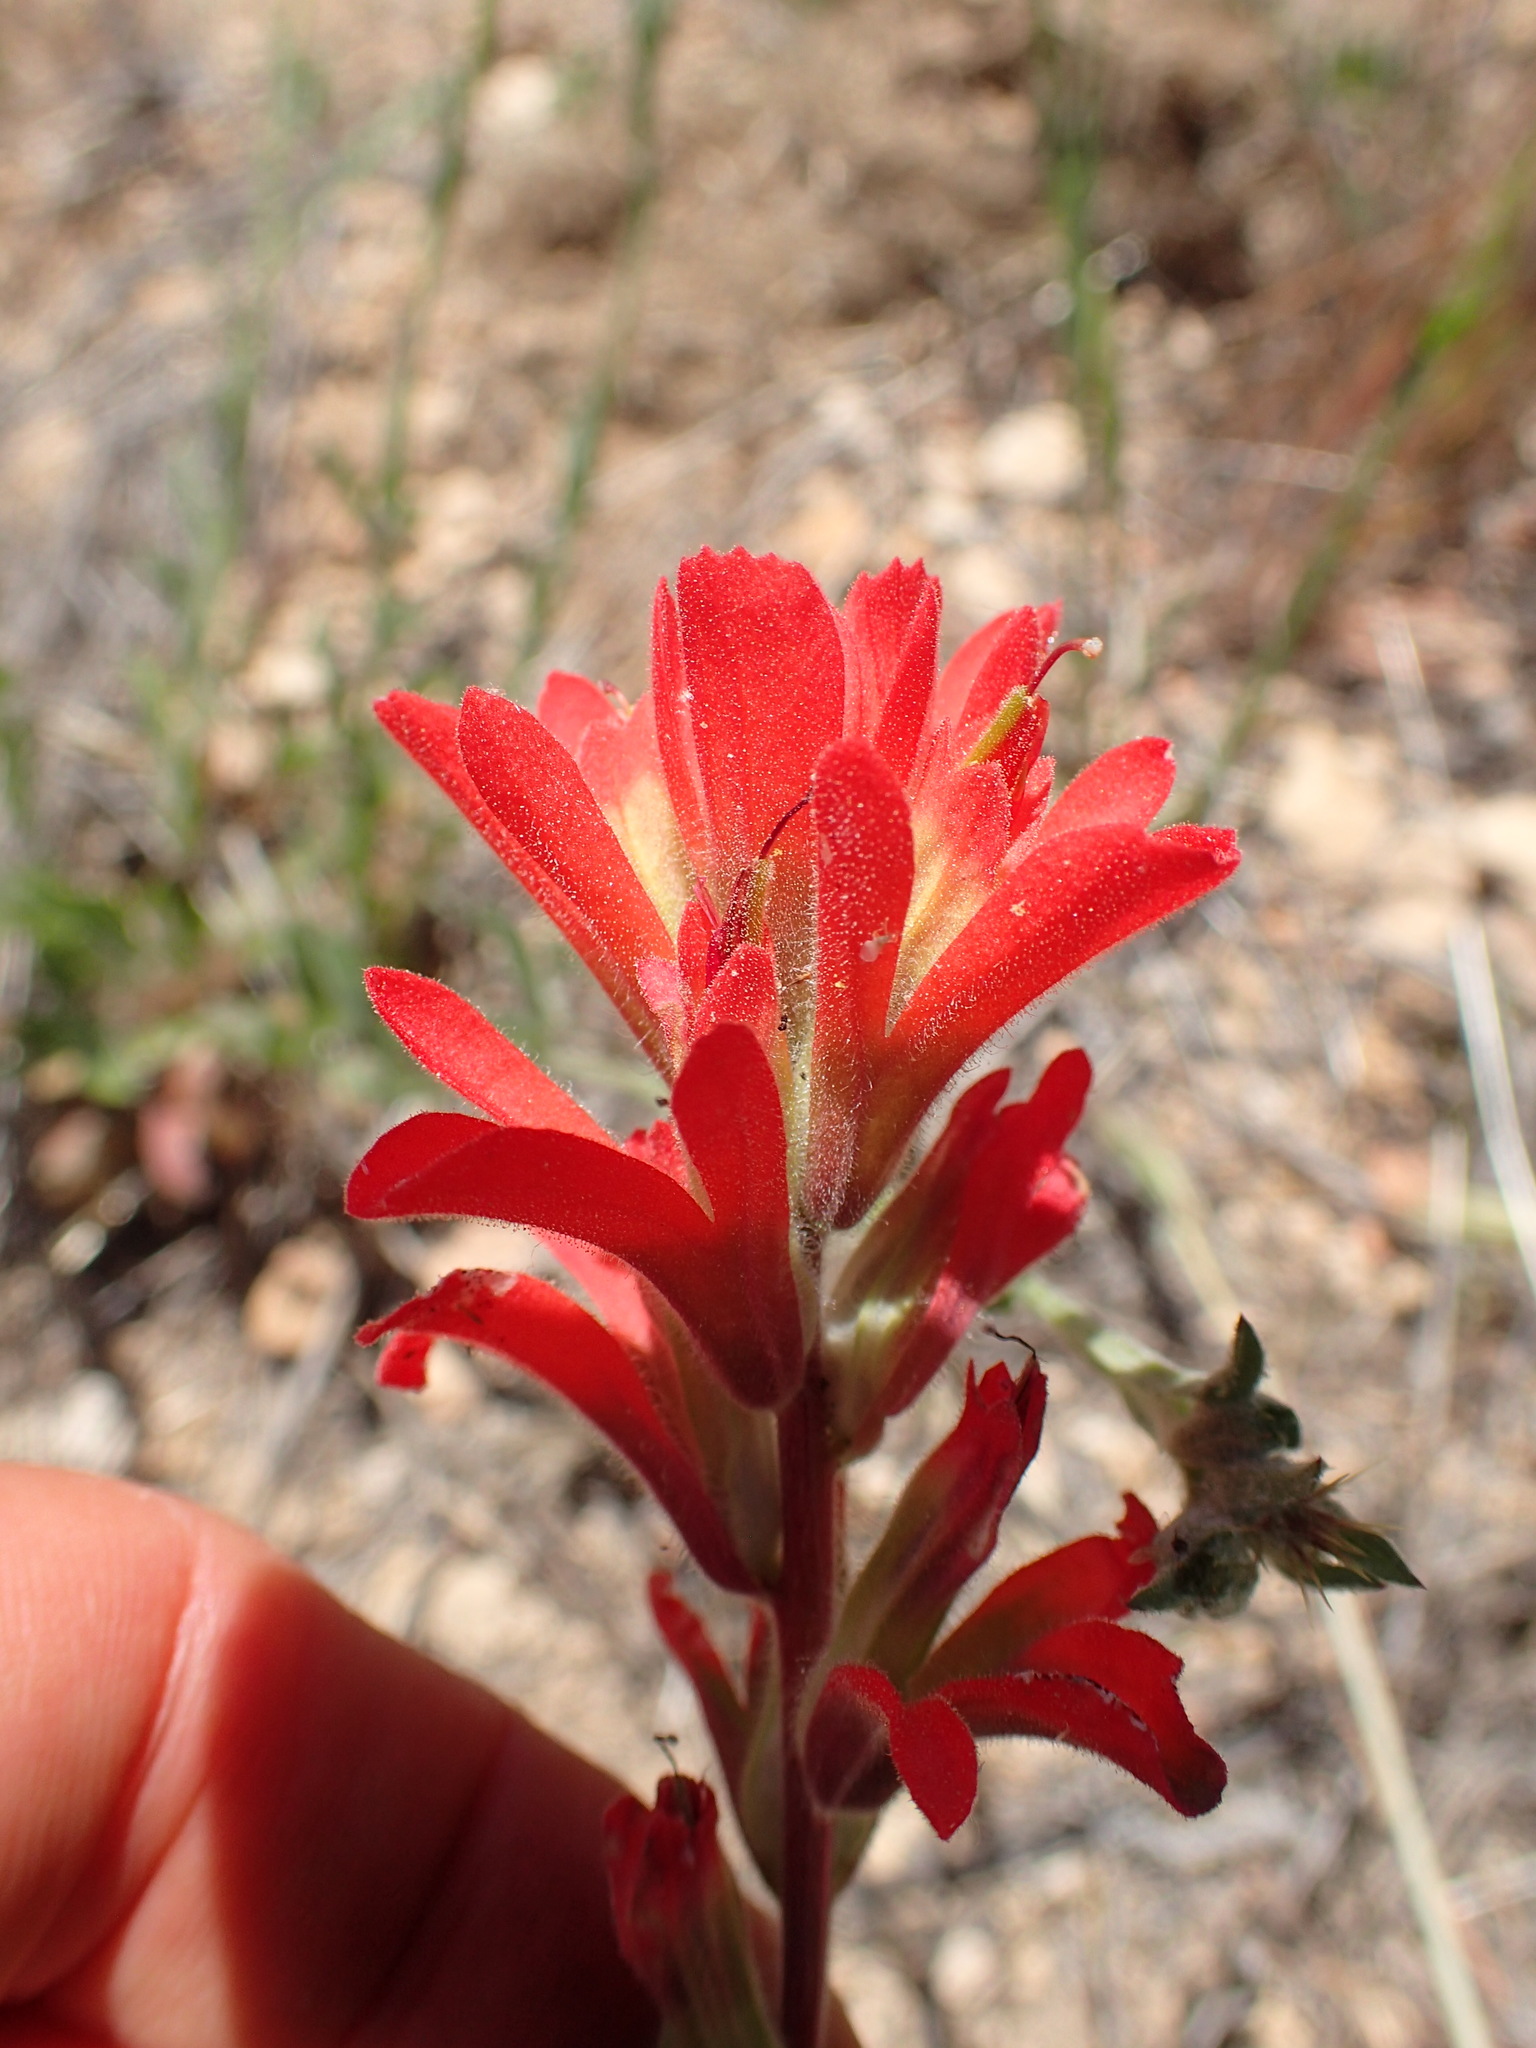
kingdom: Plantae
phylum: Tracheophyta
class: Magnoliopsida
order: Lamiales
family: Orobanchaceae
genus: Castilleja
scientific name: Castilleja affinis
